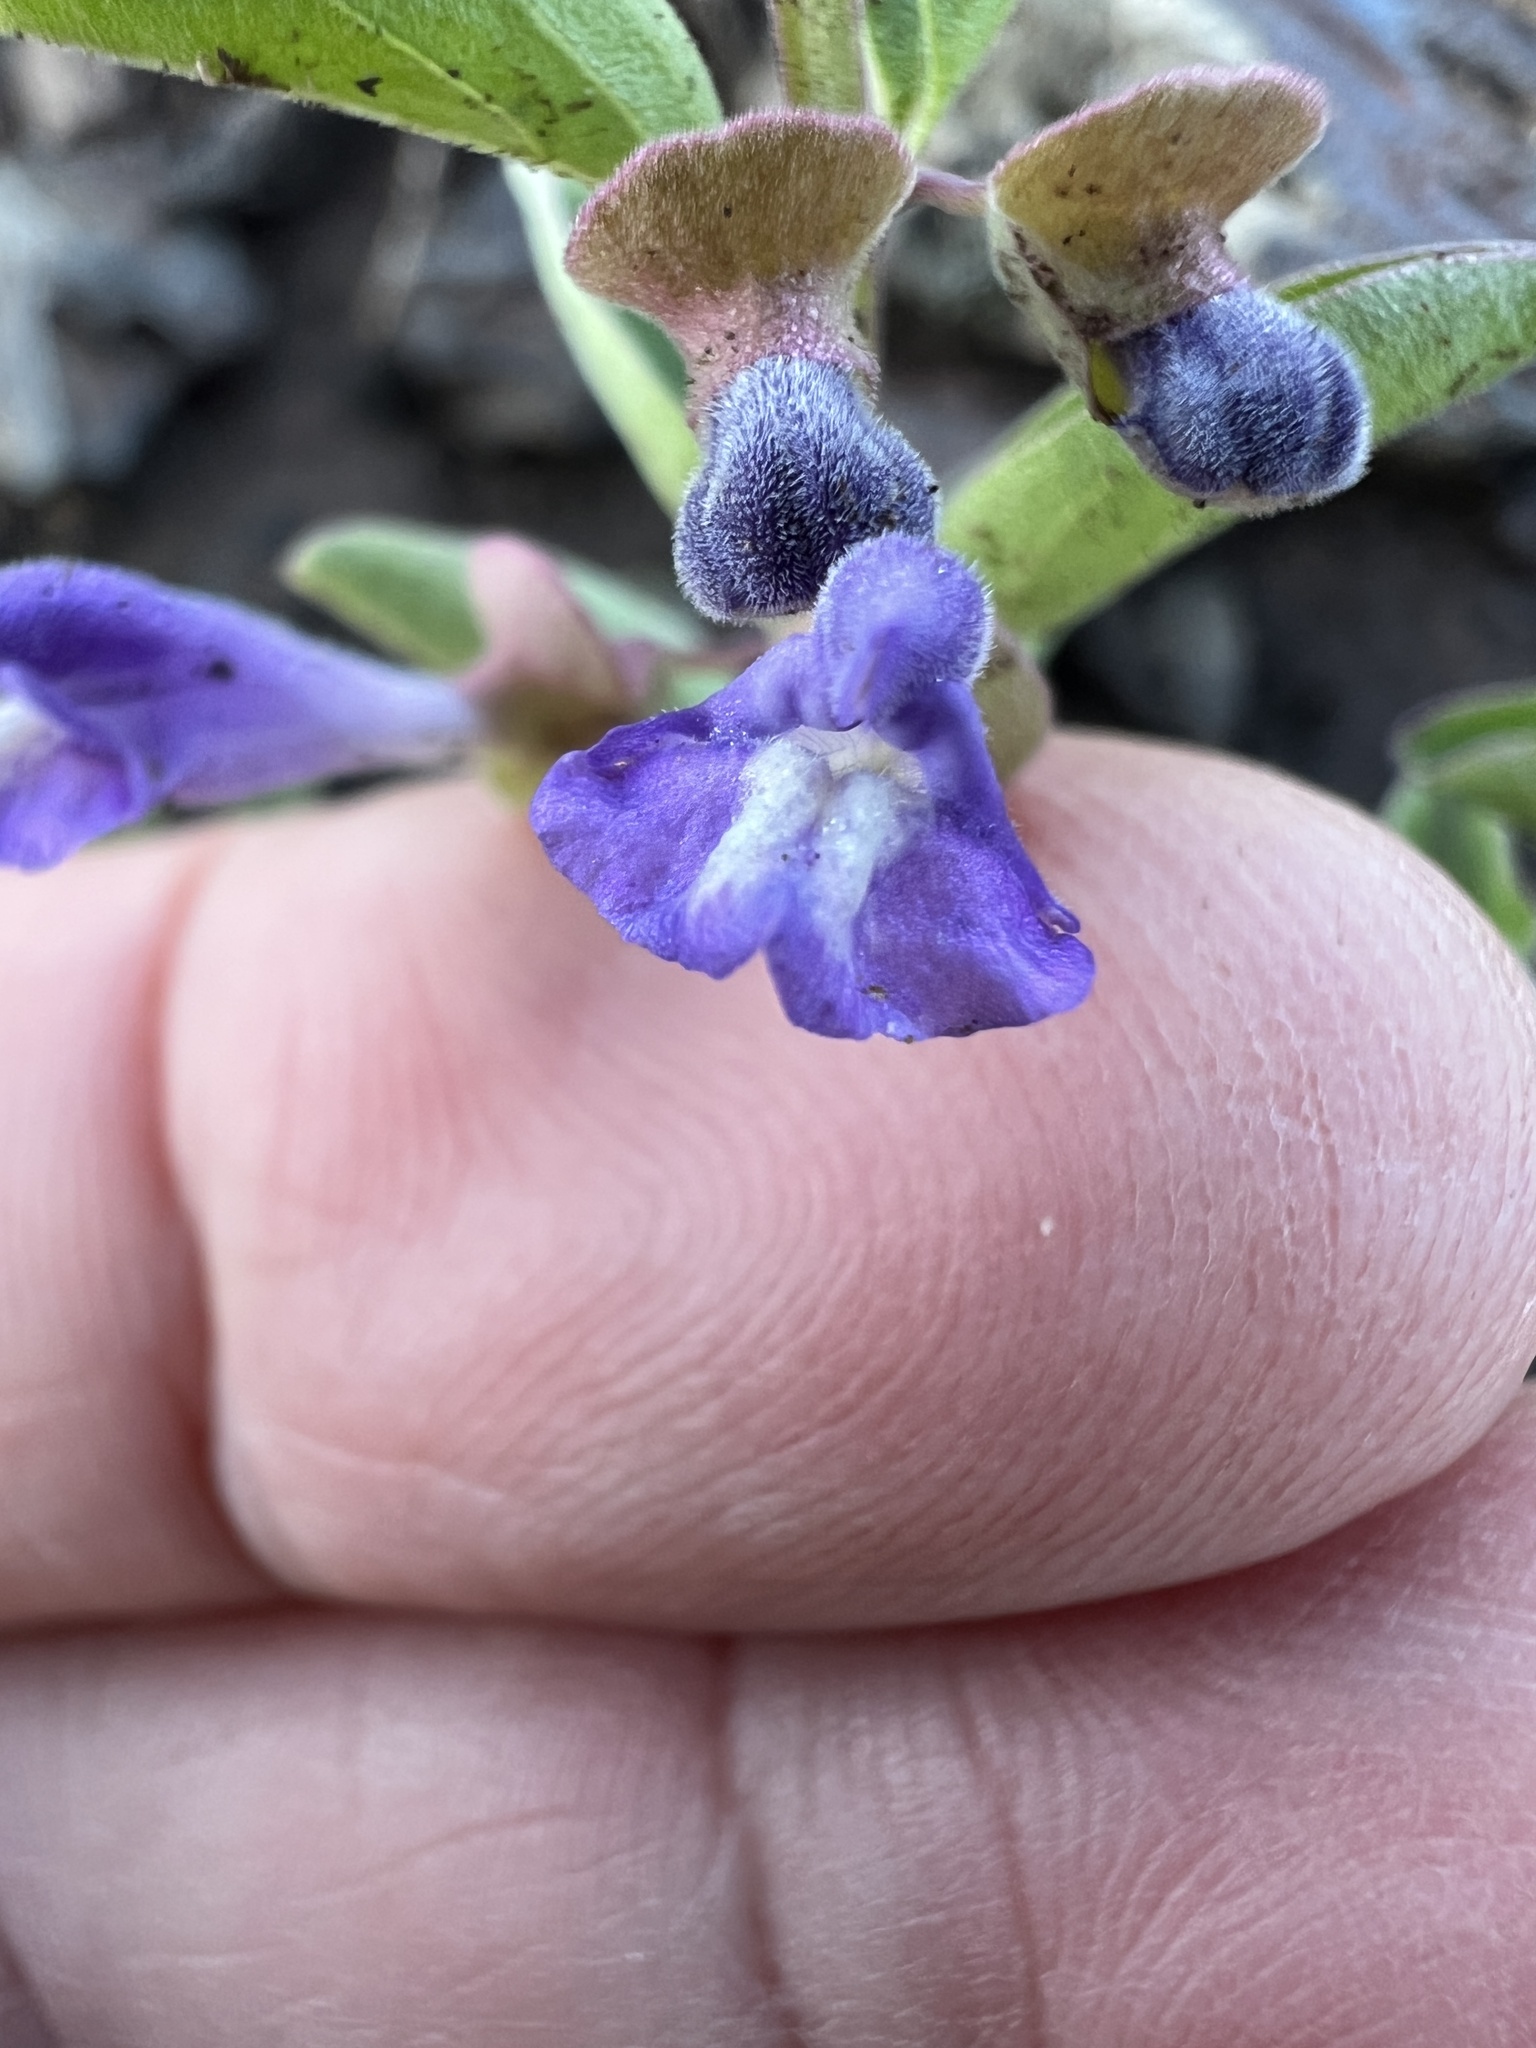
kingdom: Plantae
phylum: Tracheophyta
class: Magnoliopsida
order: Lamiales
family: Lamiaceae
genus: Scutellaria
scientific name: Scutellaria angustifolia
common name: Narrow-leaved skullcap
